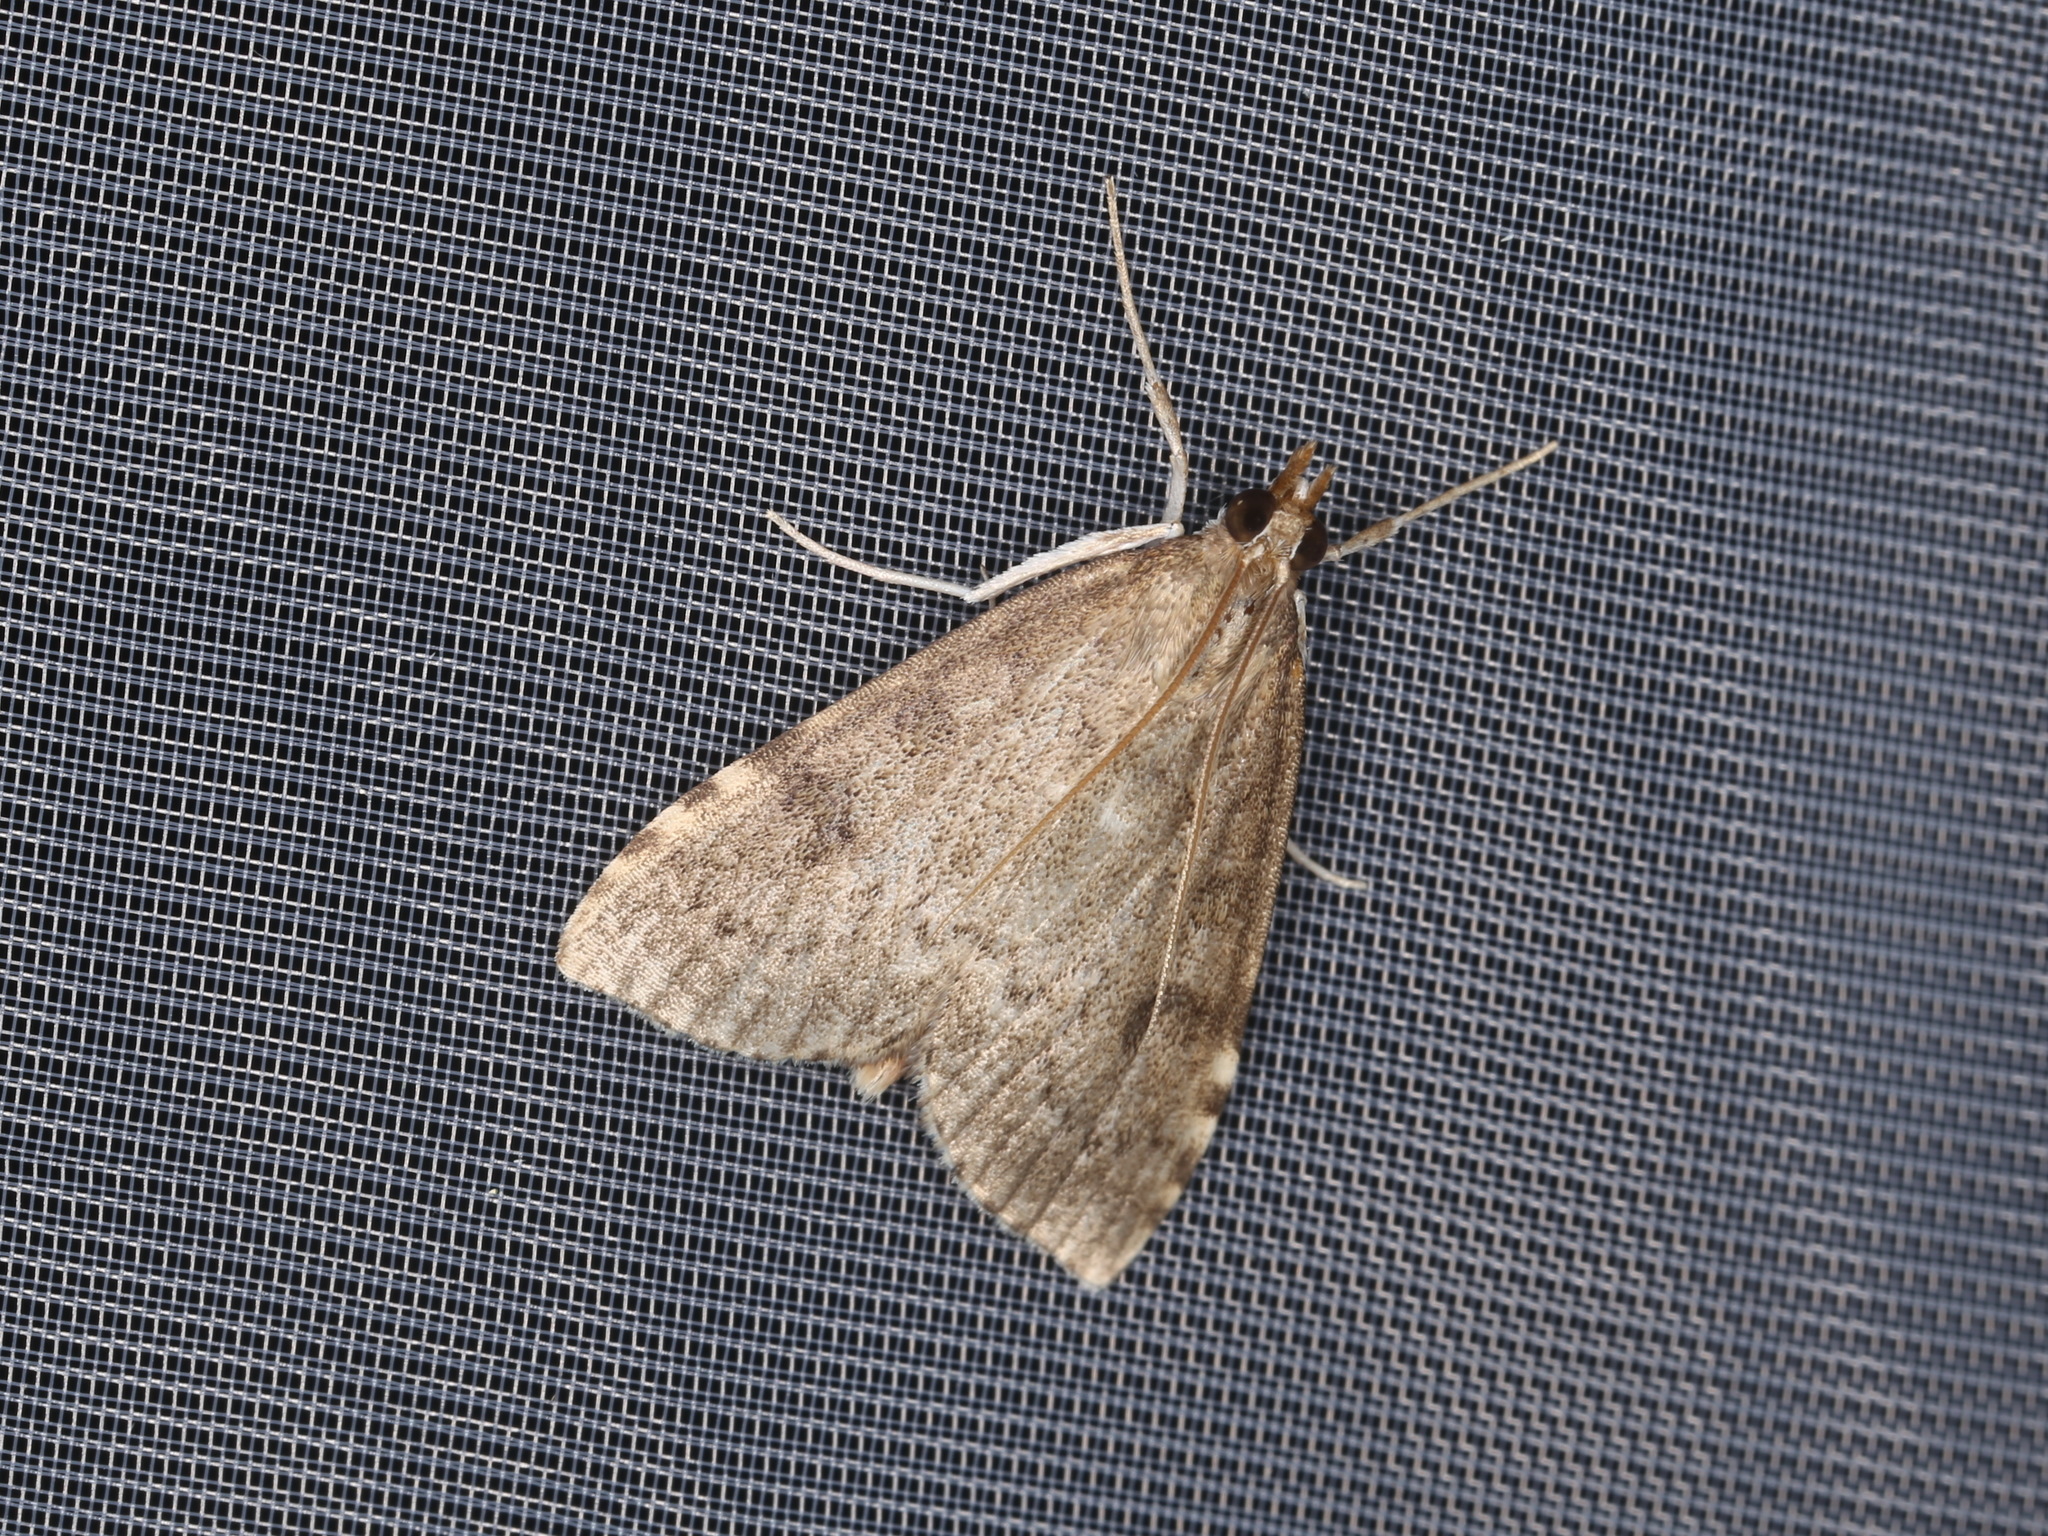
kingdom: Animalia
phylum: Arthropoda
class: Insecta
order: Lepidoptera
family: Crambidae
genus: Udea
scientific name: Udea prunalis
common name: Dusky pearl
